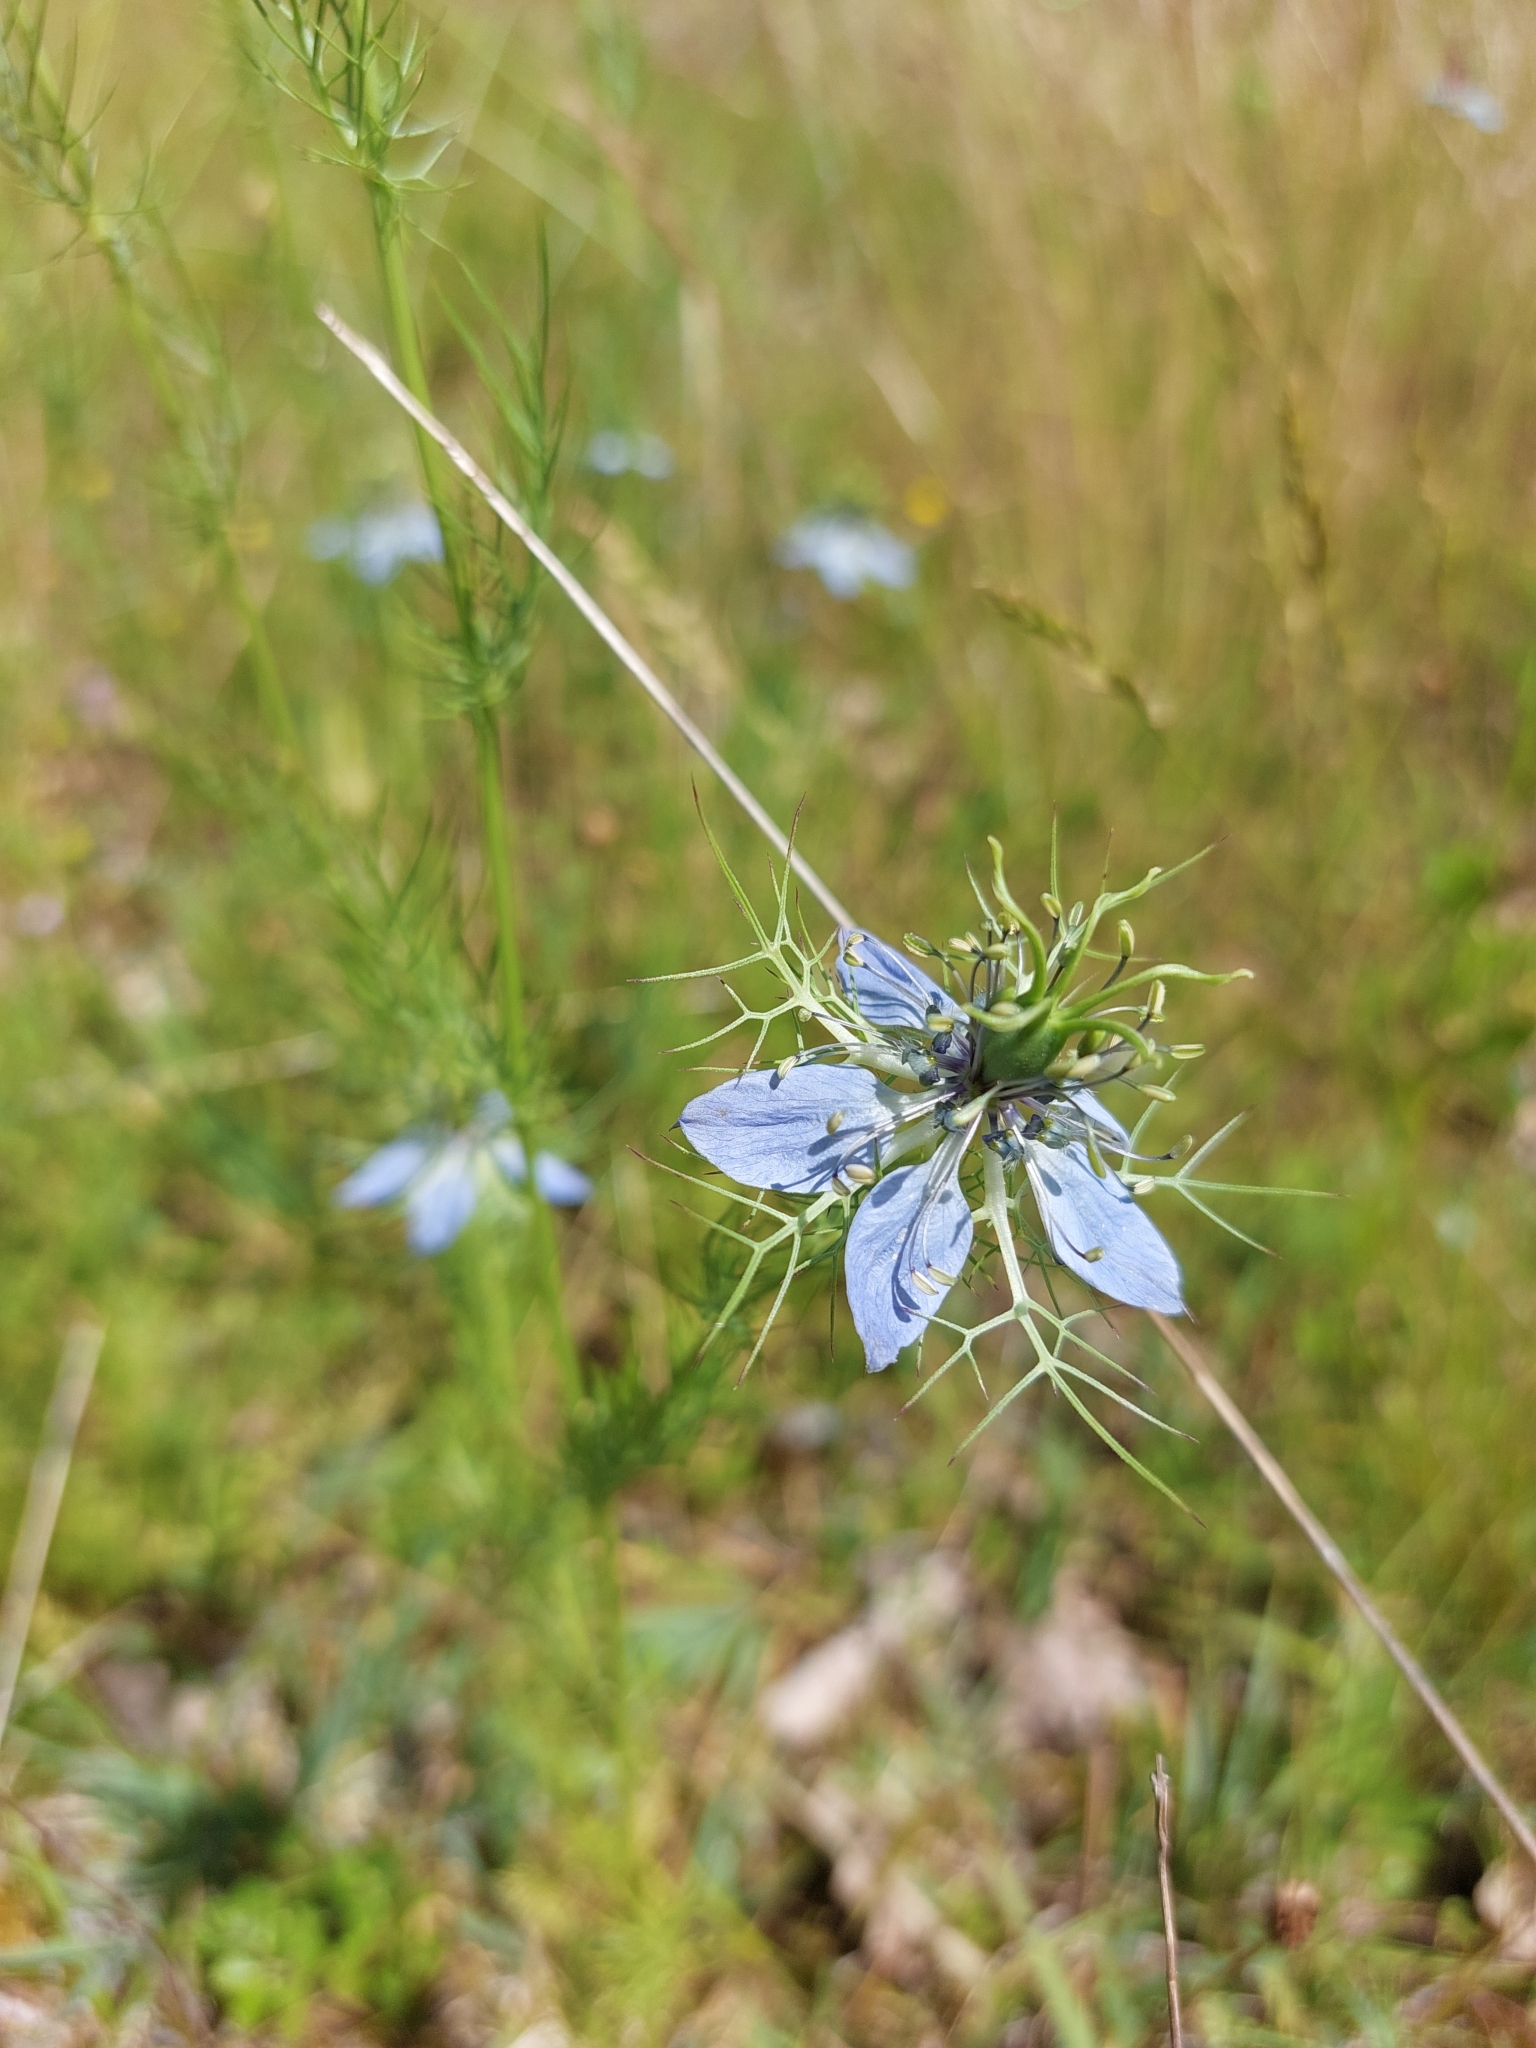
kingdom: Plantae
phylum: Tracheophyta
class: Magnoliopsida
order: Ranunculales
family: Ranunculaceae
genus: Nigella
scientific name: Nigella damascena
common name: Love-in-a-mist
